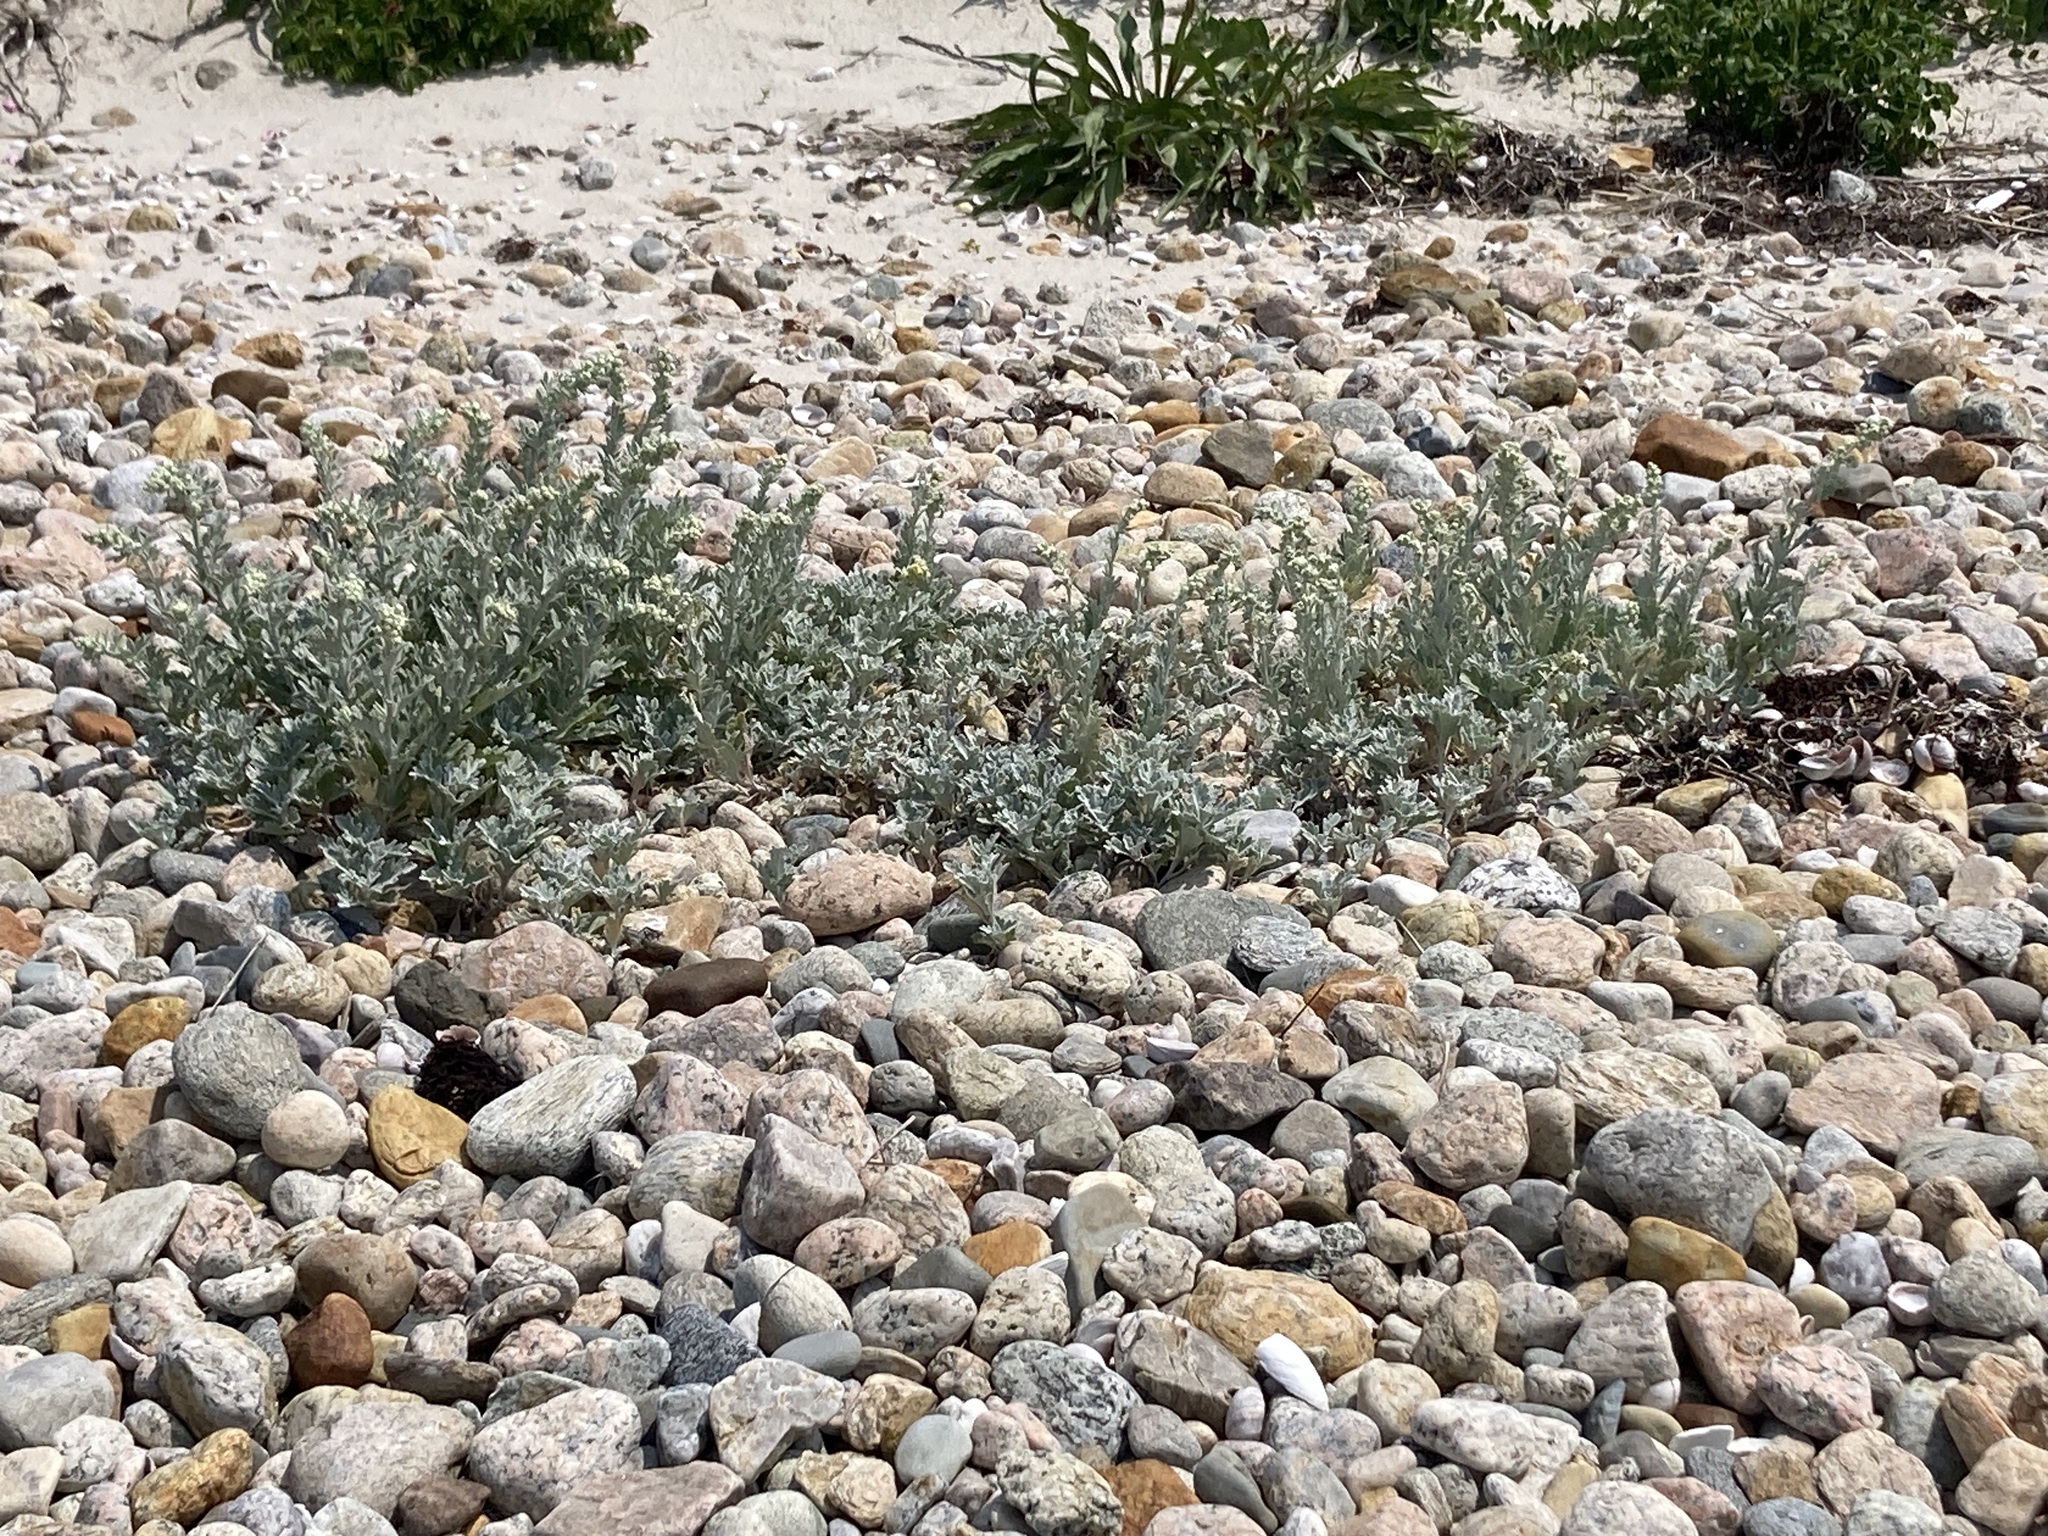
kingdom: Plantae
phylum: Tracheophyta
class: Magnoliopsida
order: Asterales
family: Asteraceae
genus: Artemisia
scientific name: Artemisia stelleriana
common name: Beach wormwood
